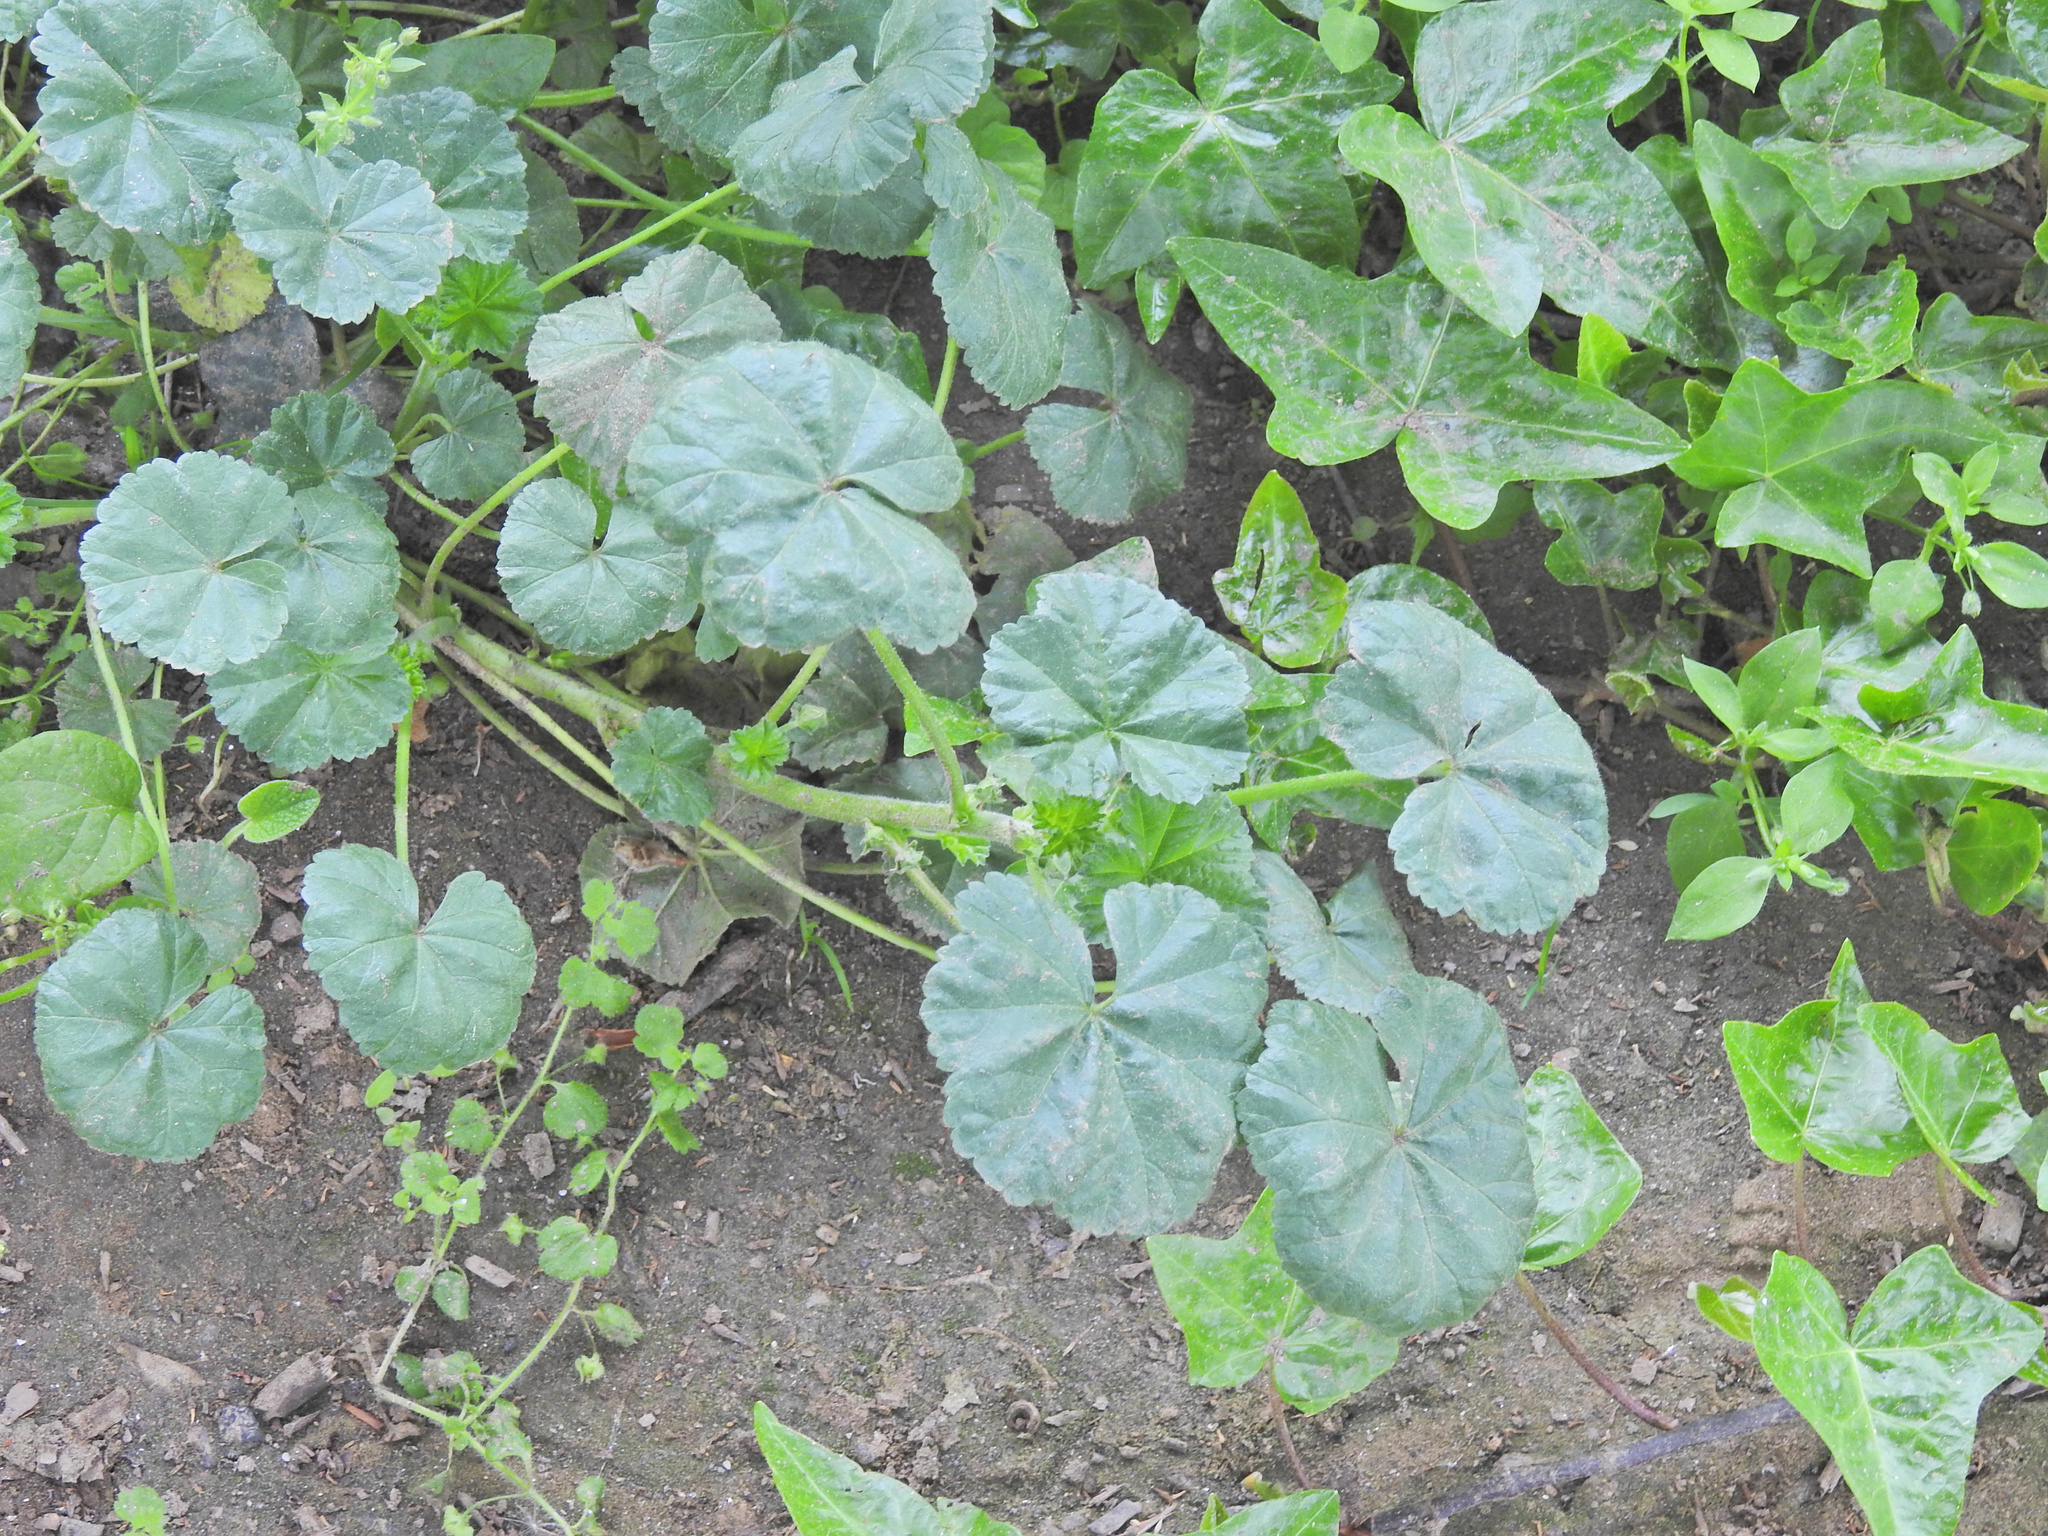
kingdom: Plantae
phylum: Tracheophyta
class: Magnoliopsida
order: Malvales
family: Malvaceae
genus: Malva
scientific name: Malva neglecta
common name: Common mallow
